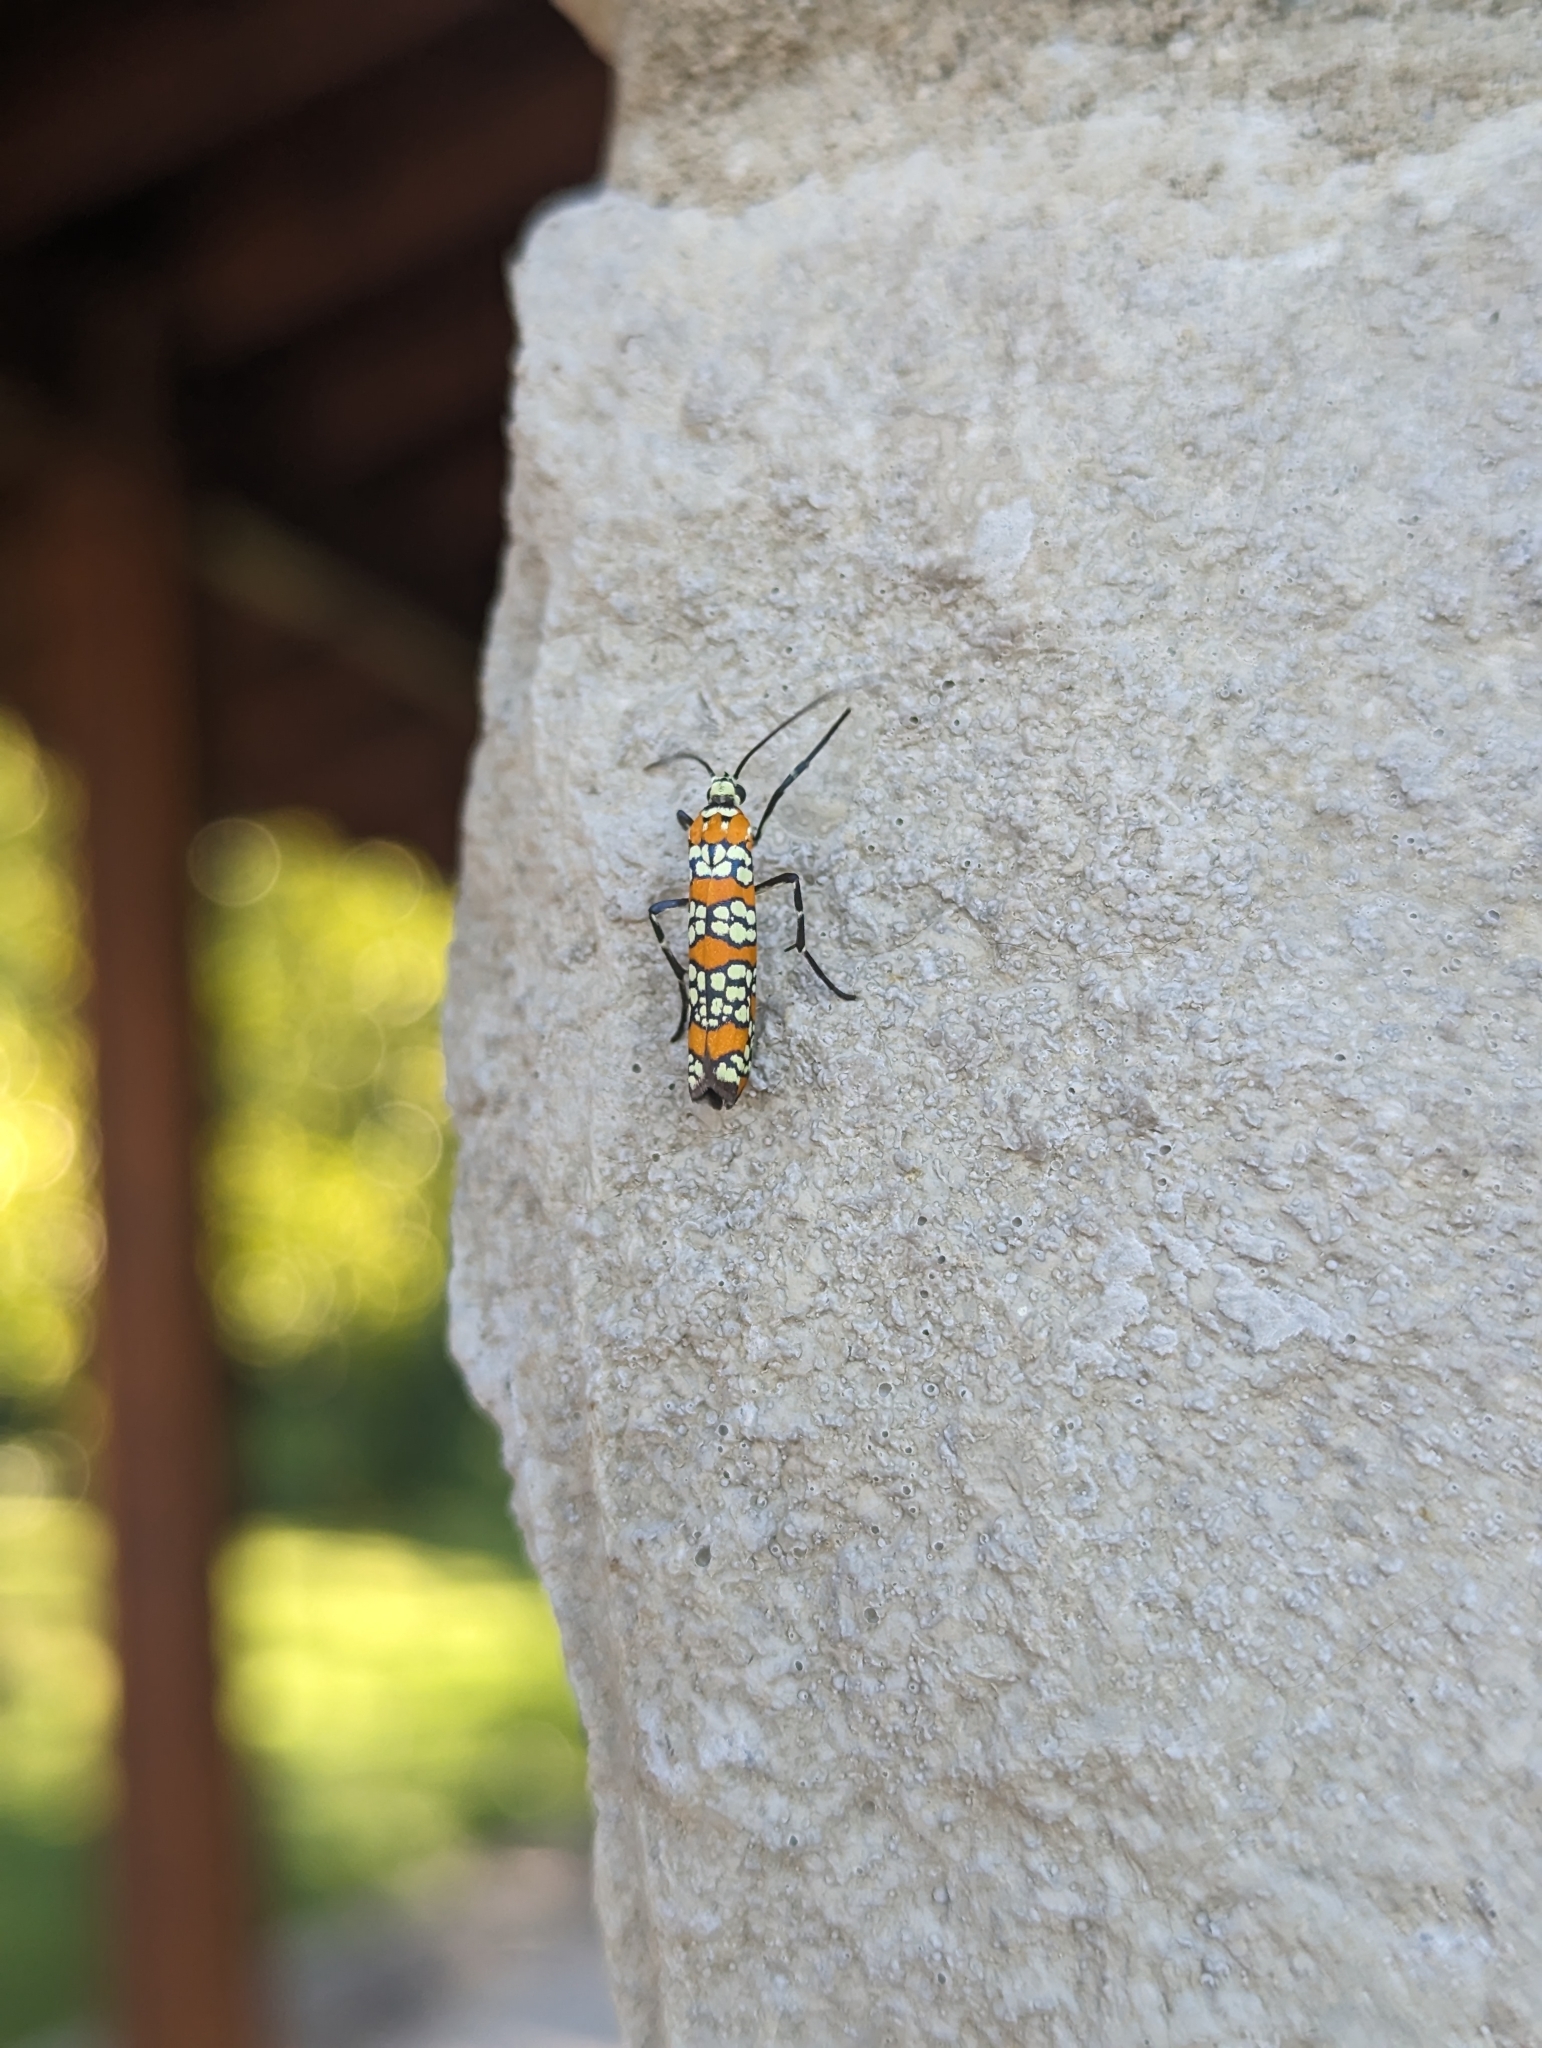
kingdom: Animalia
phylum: Arthropoda
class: Insecta
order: Lepidoptera
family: Attevidae
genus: Atteva
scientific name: Atteva punctella
